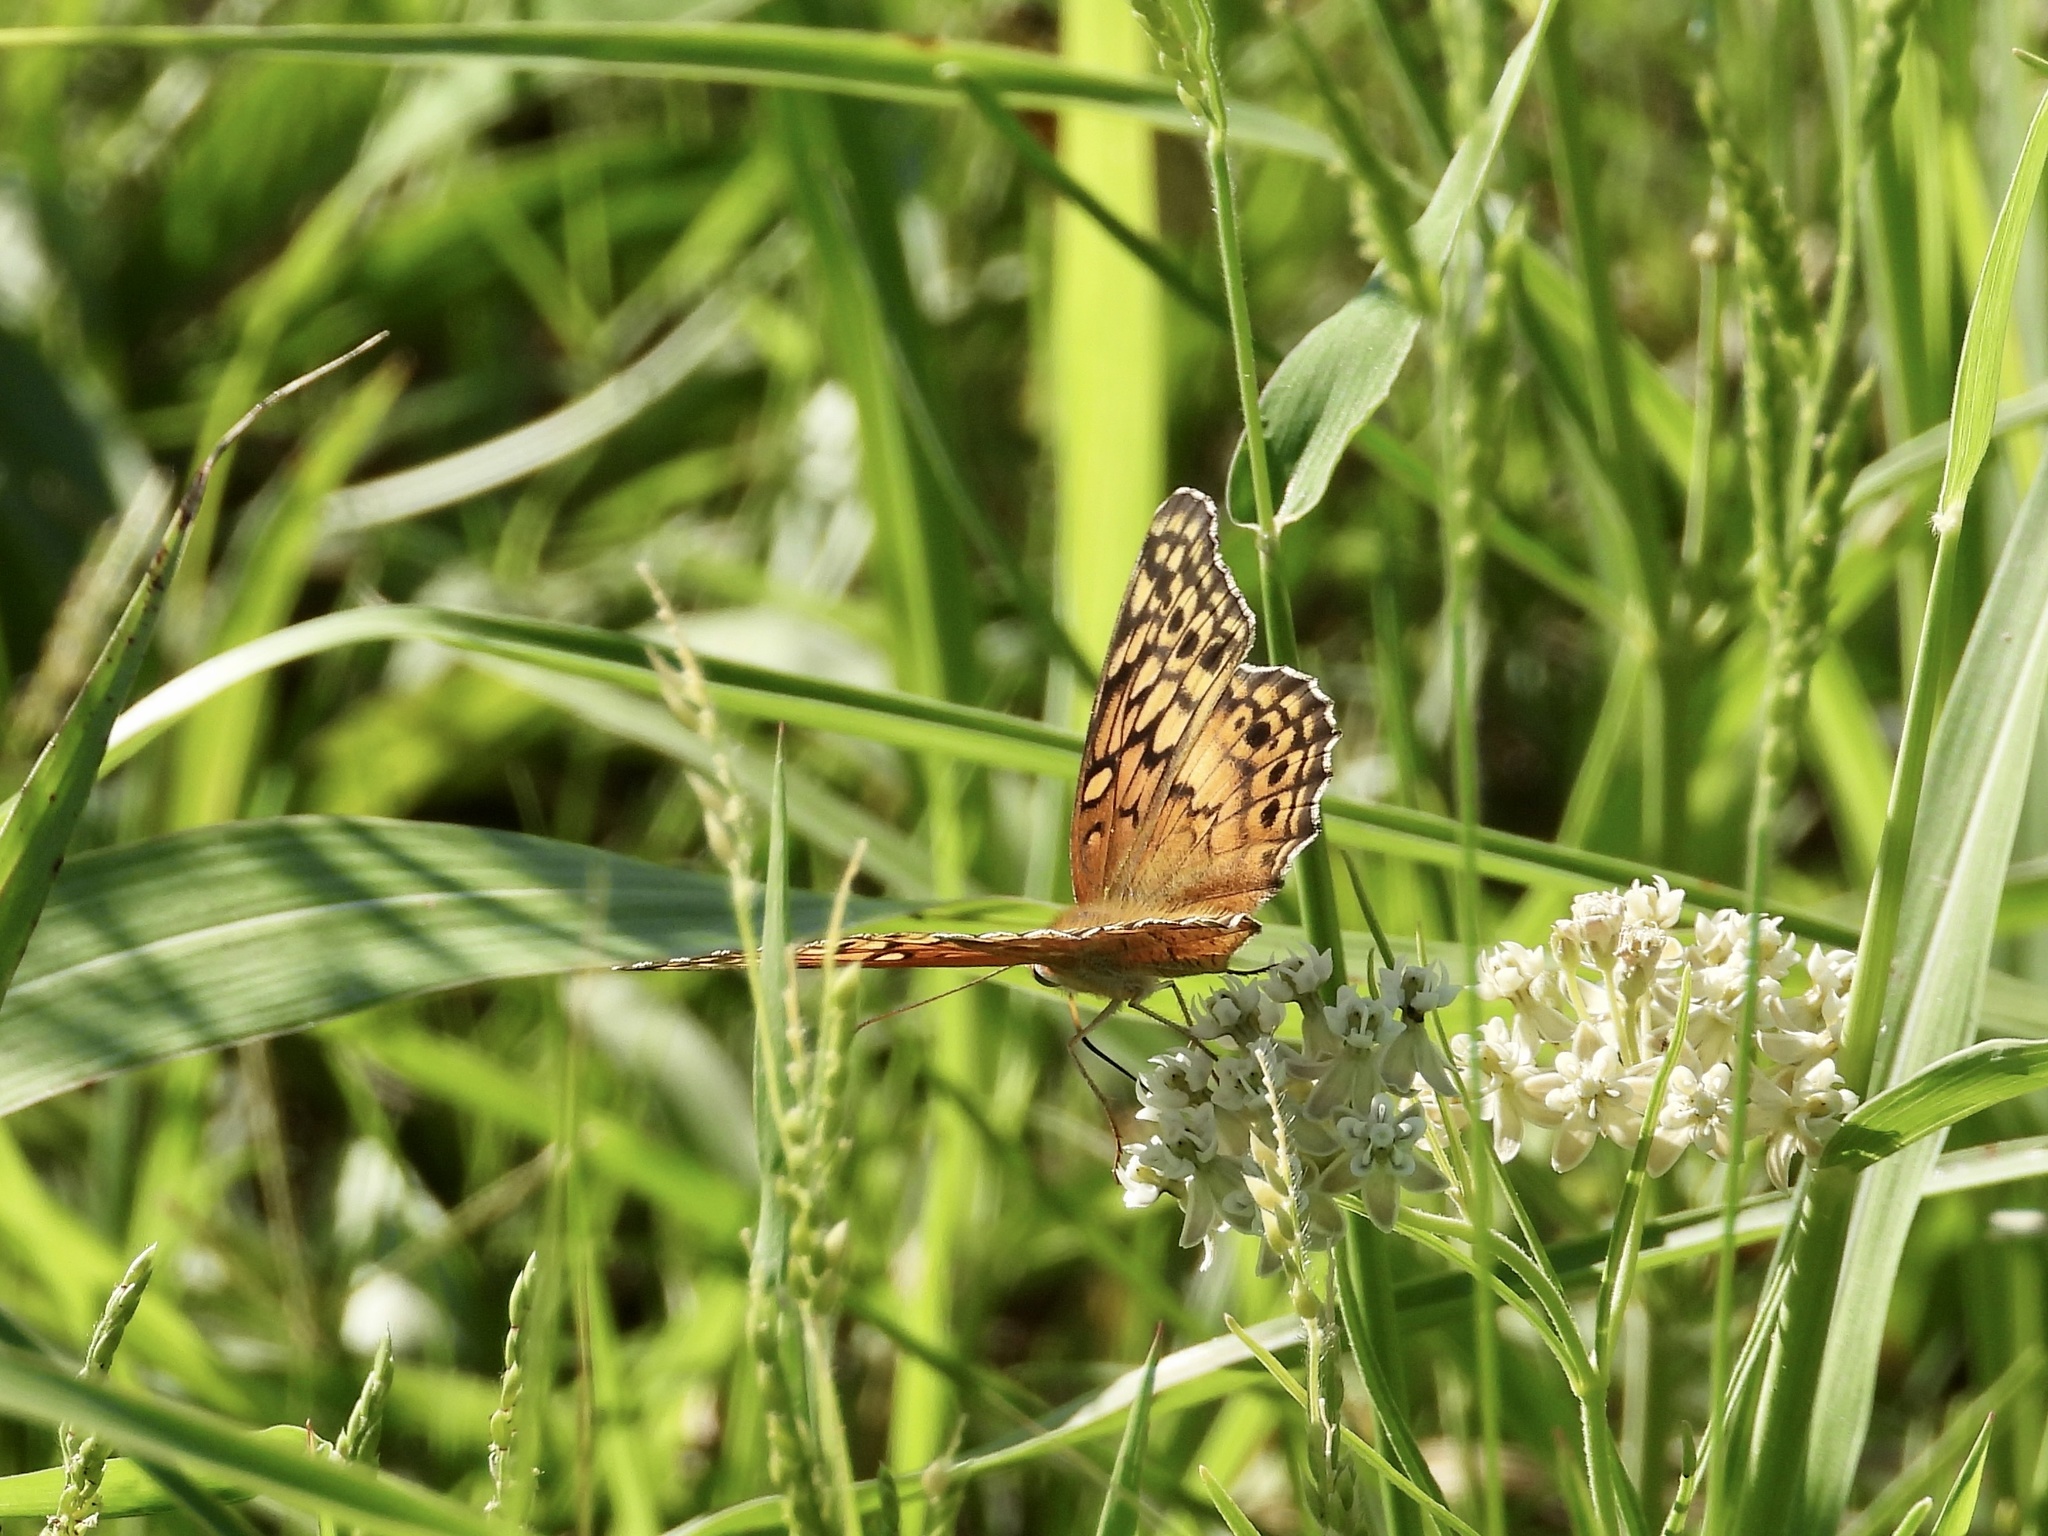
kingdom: Animalia
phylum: Arthropoda
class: Insecta
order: Lepidoptera
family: Nymphalidae
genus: Euptoieta
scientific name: Euptoieta claudia
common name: Variegated fritillary
